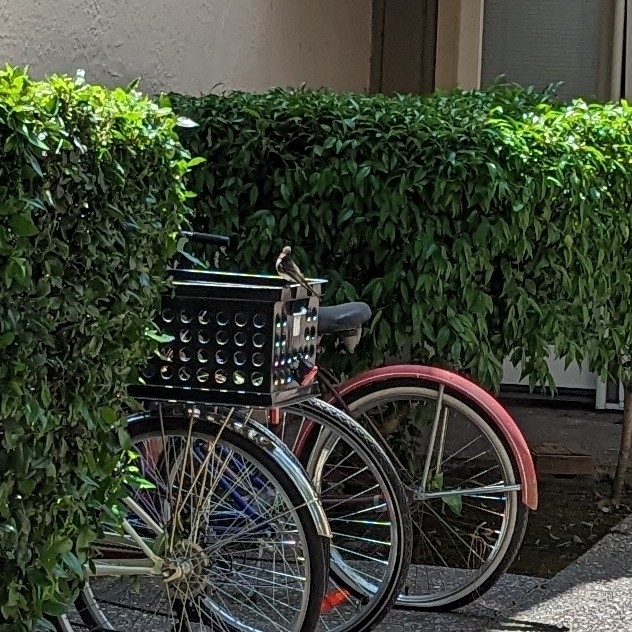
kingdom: Animalia
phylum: Chordata
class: Aves
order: Passeriformes
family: Tyrannidae
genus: Sayornis
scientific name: Sayornis nigricans
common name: Black phoebe
